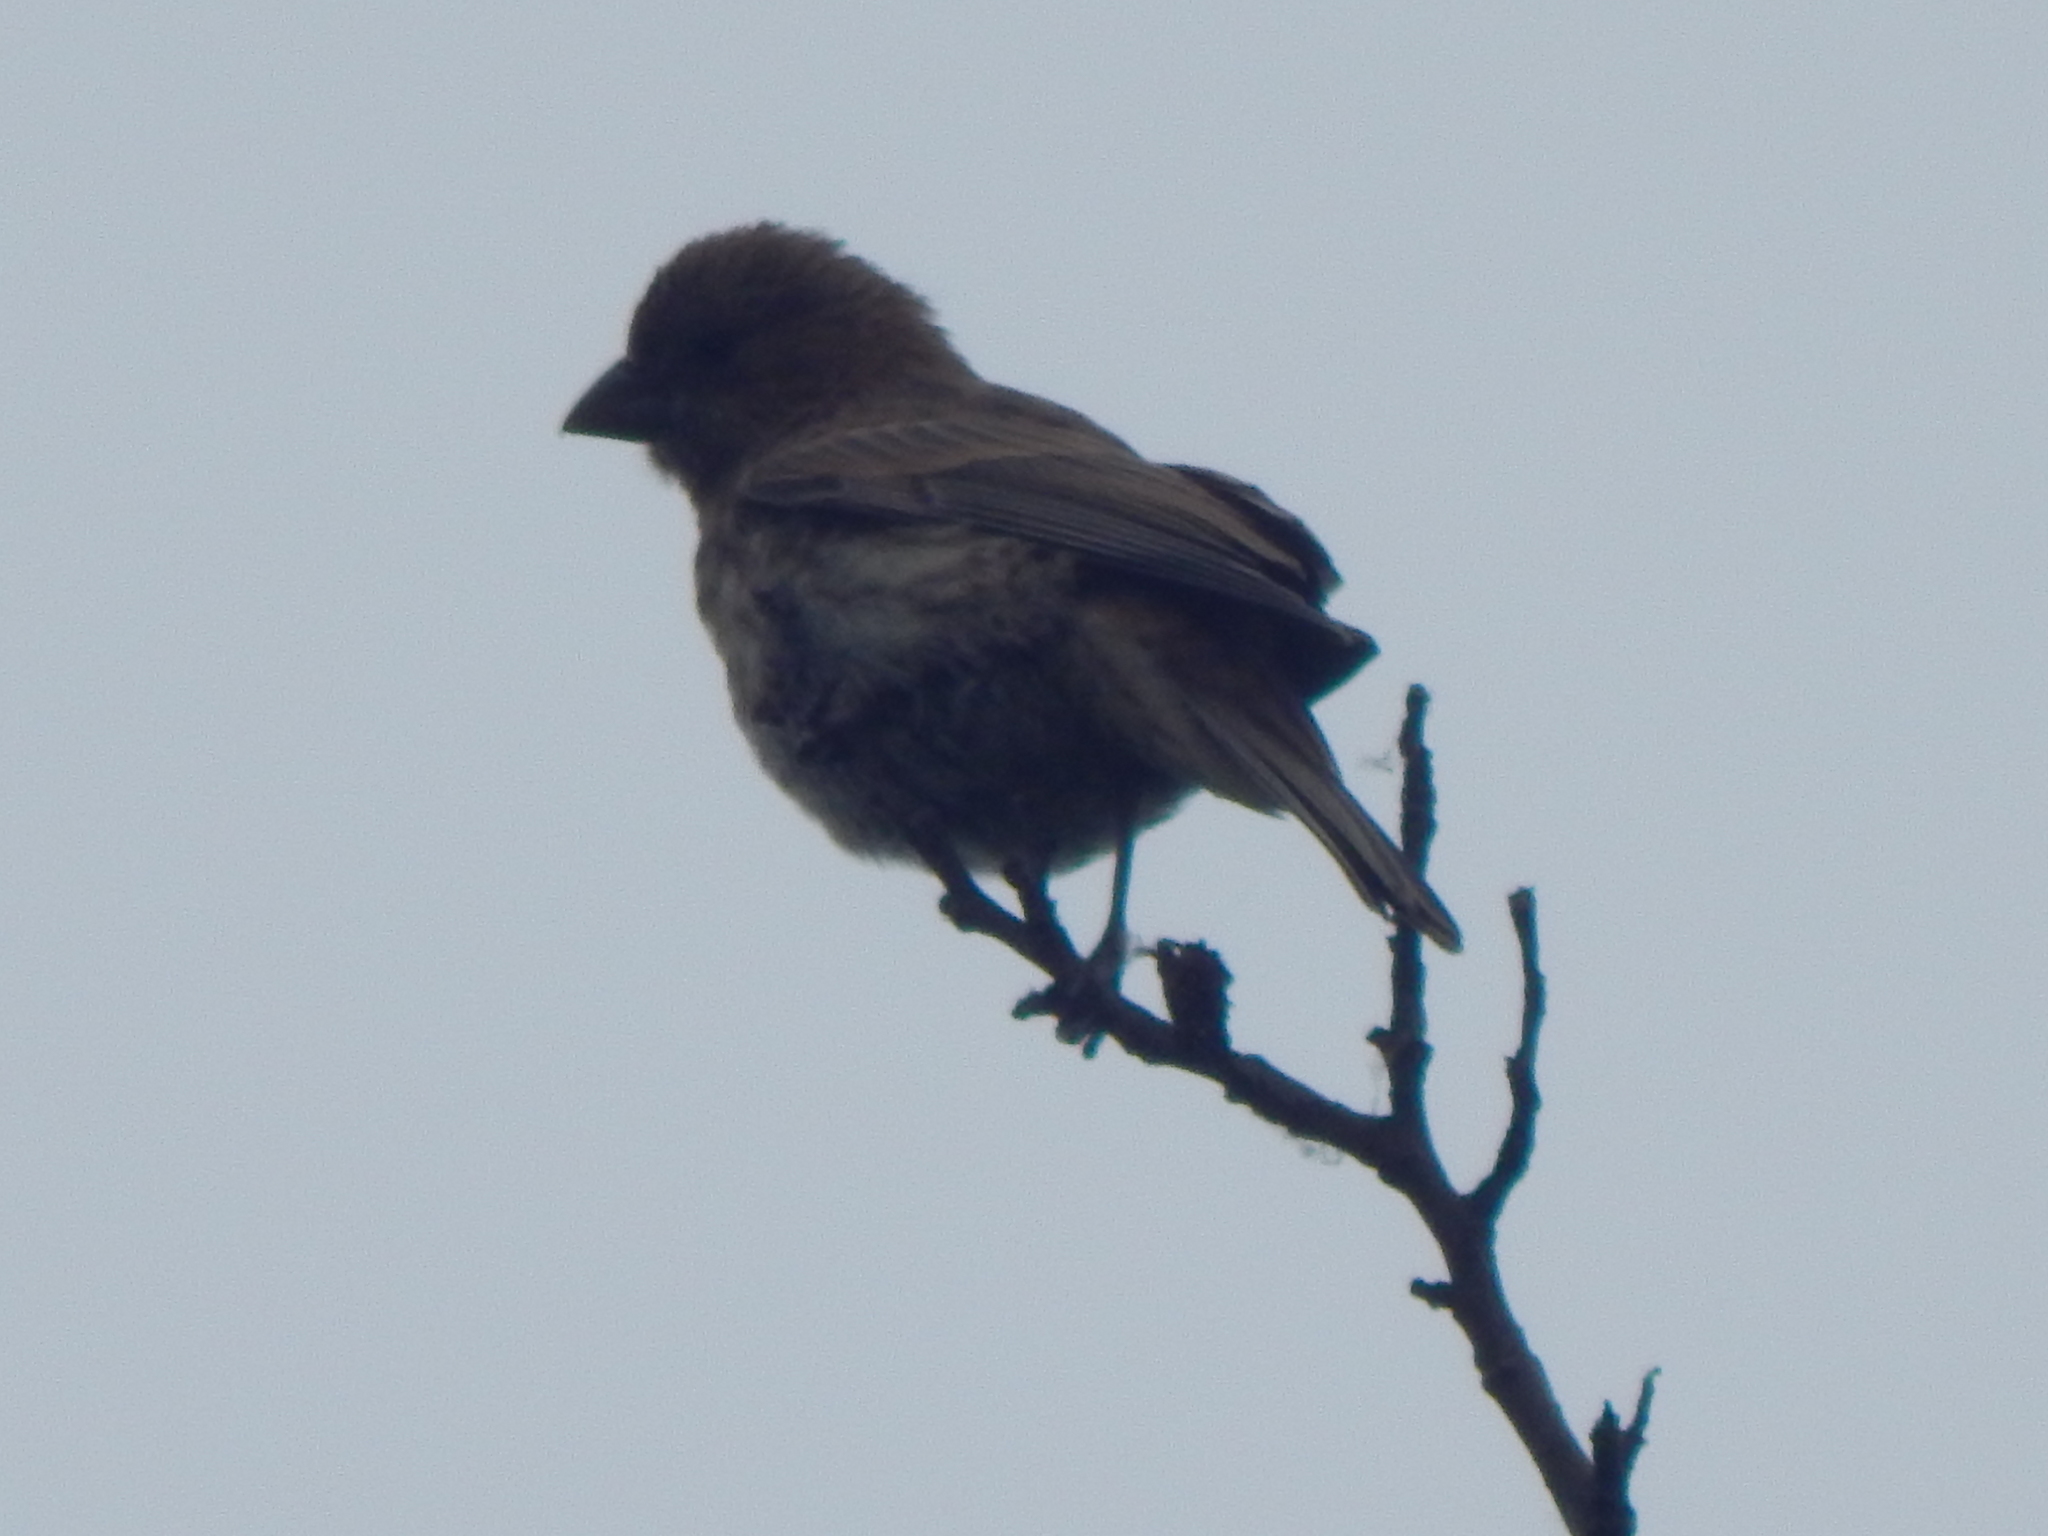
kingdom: Animalia
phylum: Chordata
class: Aves
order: Passeriformes
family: Fringillidae
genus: Haemorhous
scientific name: Haemorhous mexicanus
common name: House finch
